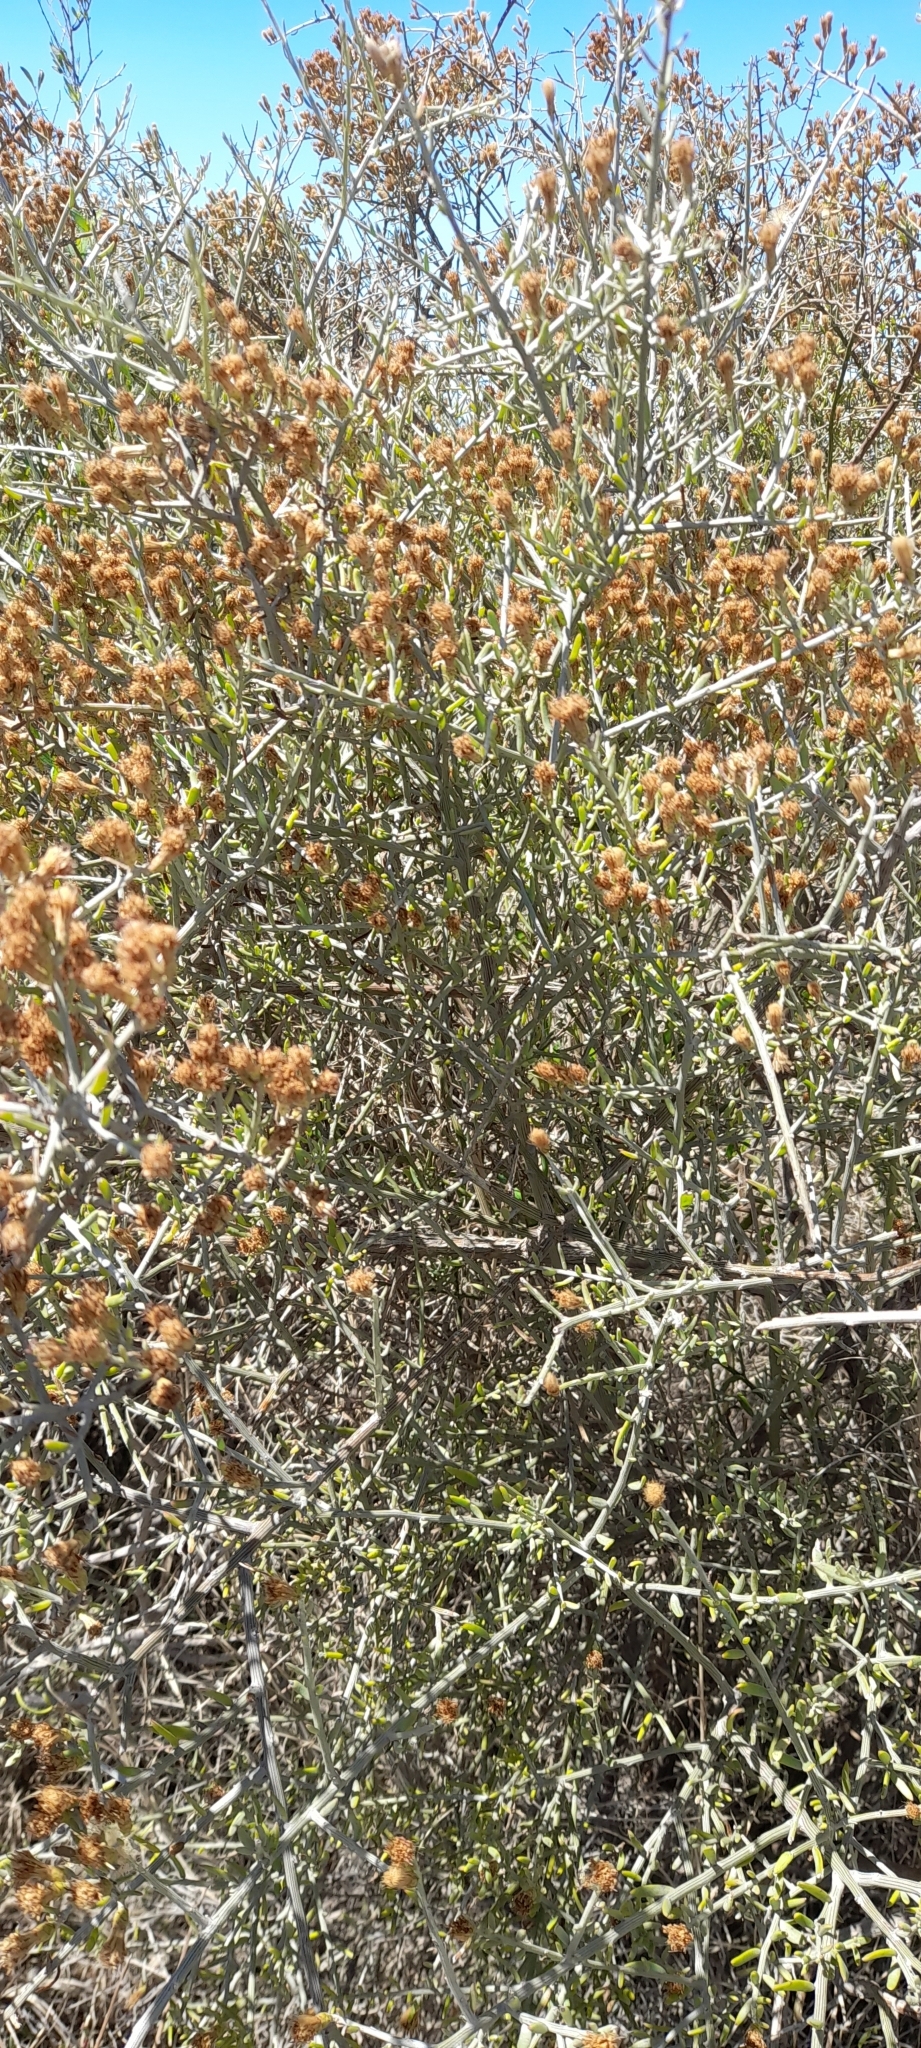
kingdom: Plantae
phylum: Tracheophyta
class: Magnoliopsida
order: Asterales
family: Asteraceae
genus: Cyclolepis
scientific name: Cyclolepis genistoides
